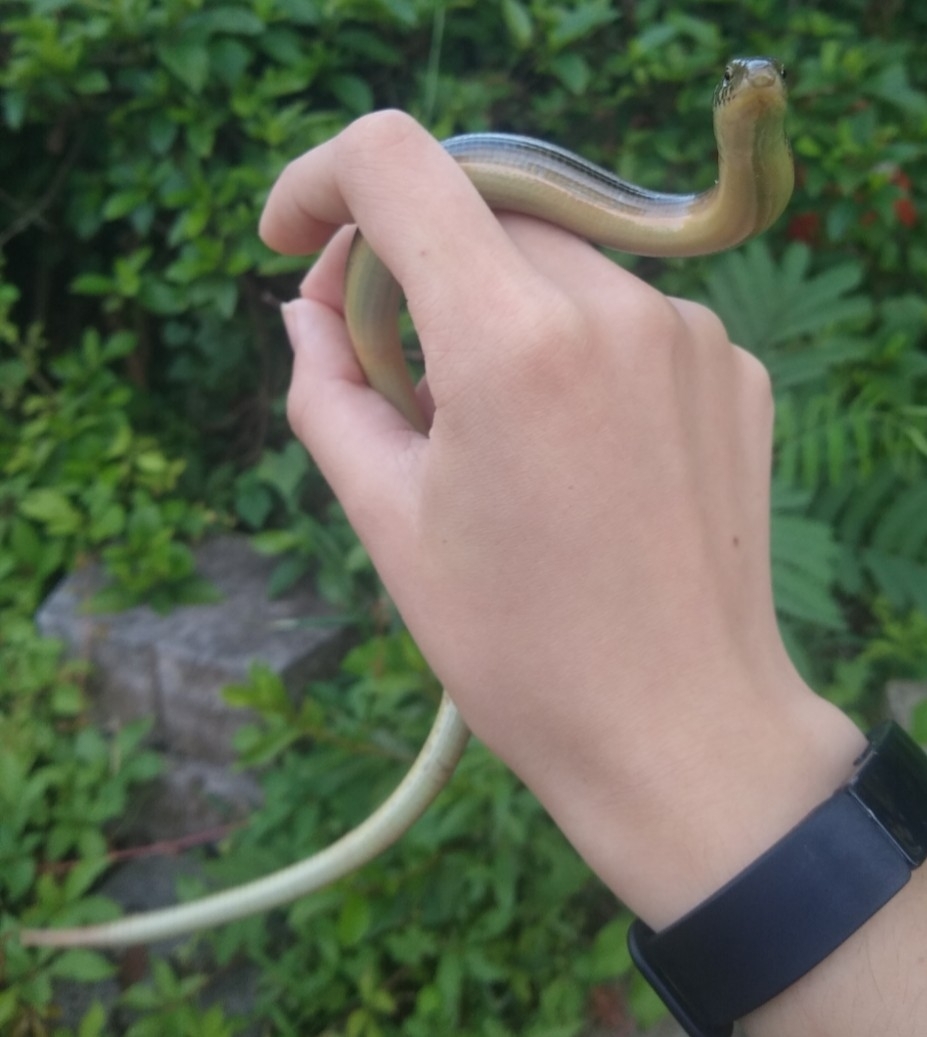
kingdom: Animalia
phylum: Chordata
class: Squamata
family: Anguidae
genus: Ophisaurus
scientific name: Ophisaurus ventralis
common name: Eastern glass lizard
